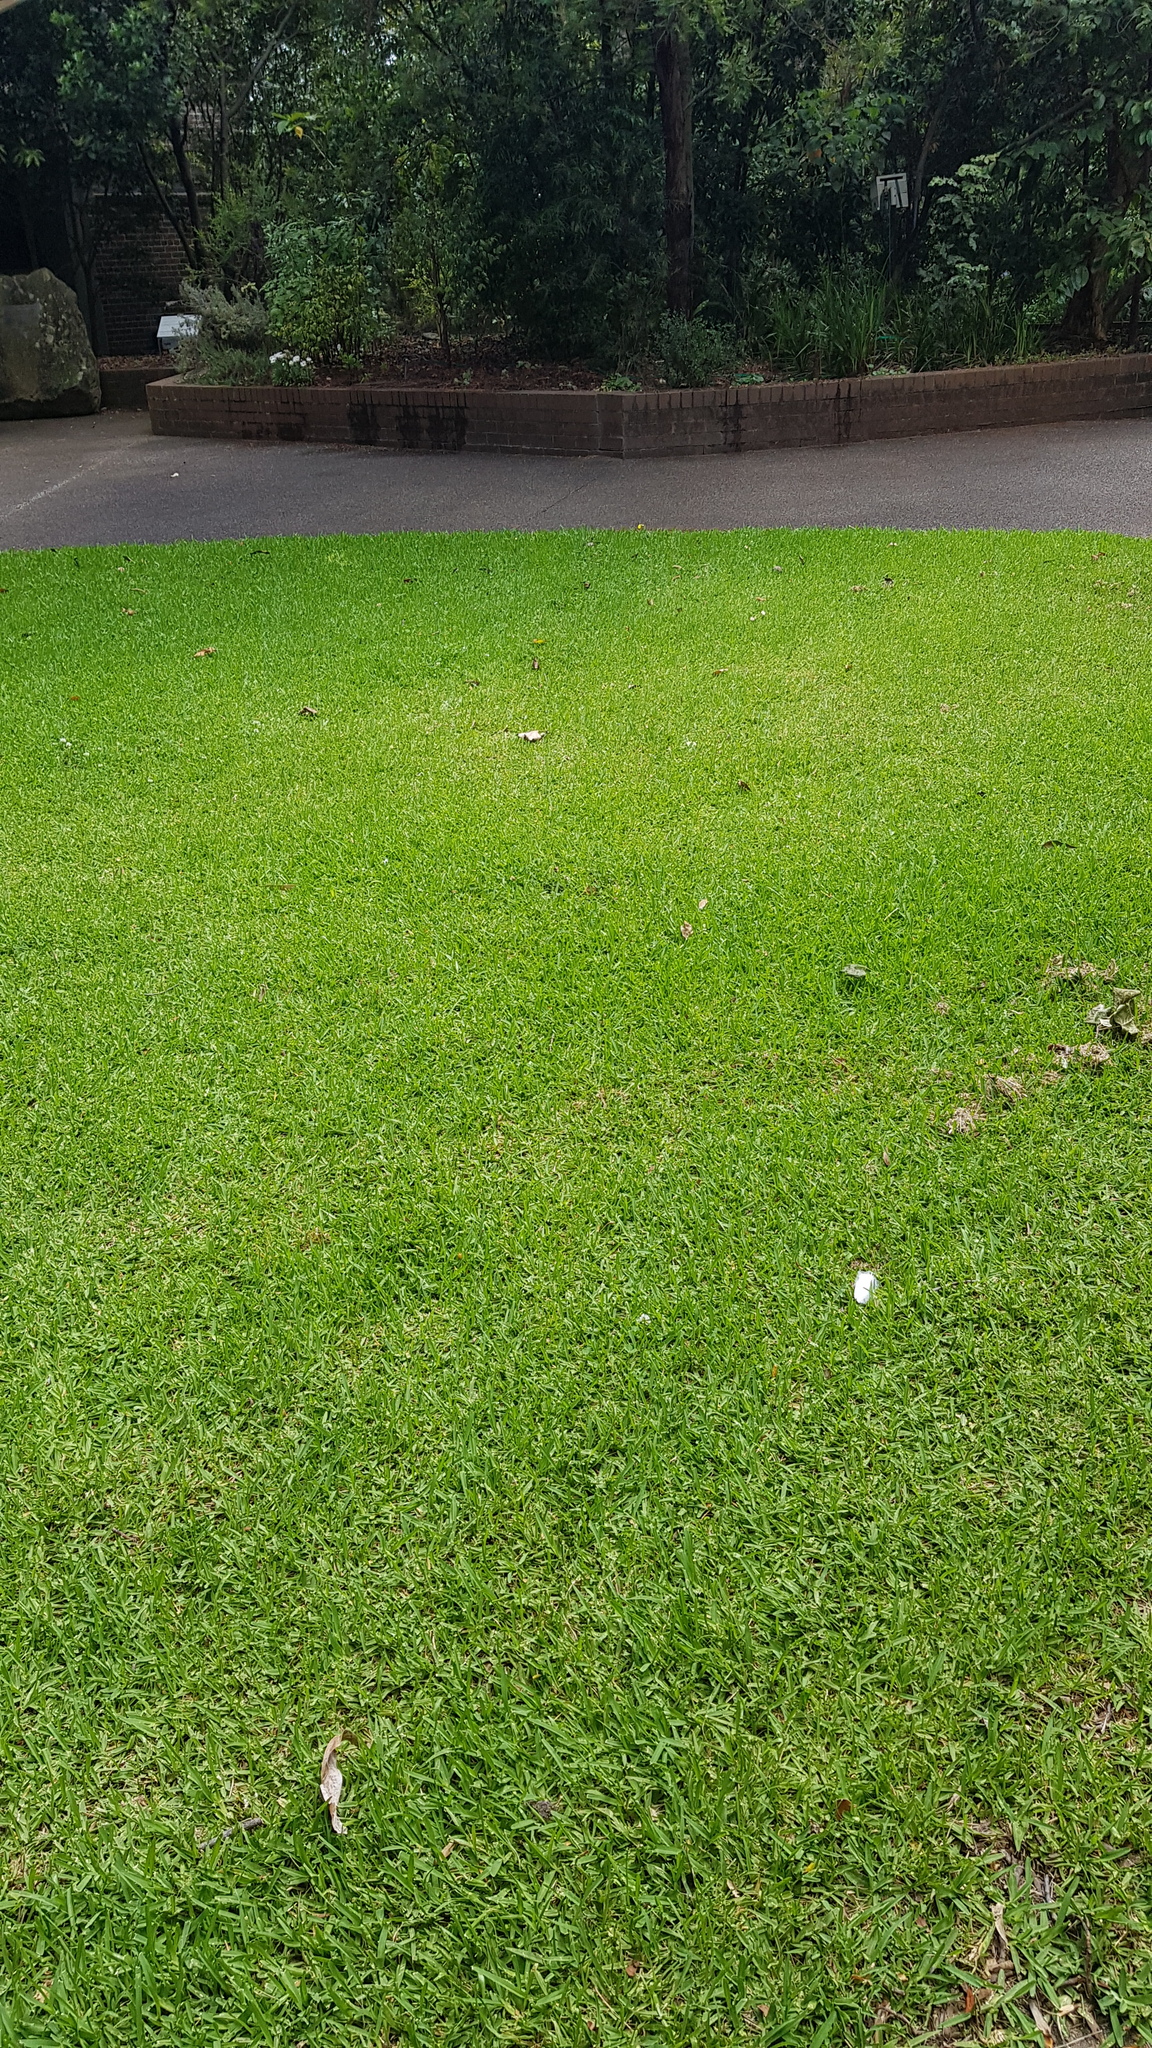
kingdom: Animalia
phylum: Arthropoda
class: Insecta
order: Lepidoptera
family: Pieridae
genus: Eurema
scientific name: Eurema hecabe
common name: Pale grass yellow
